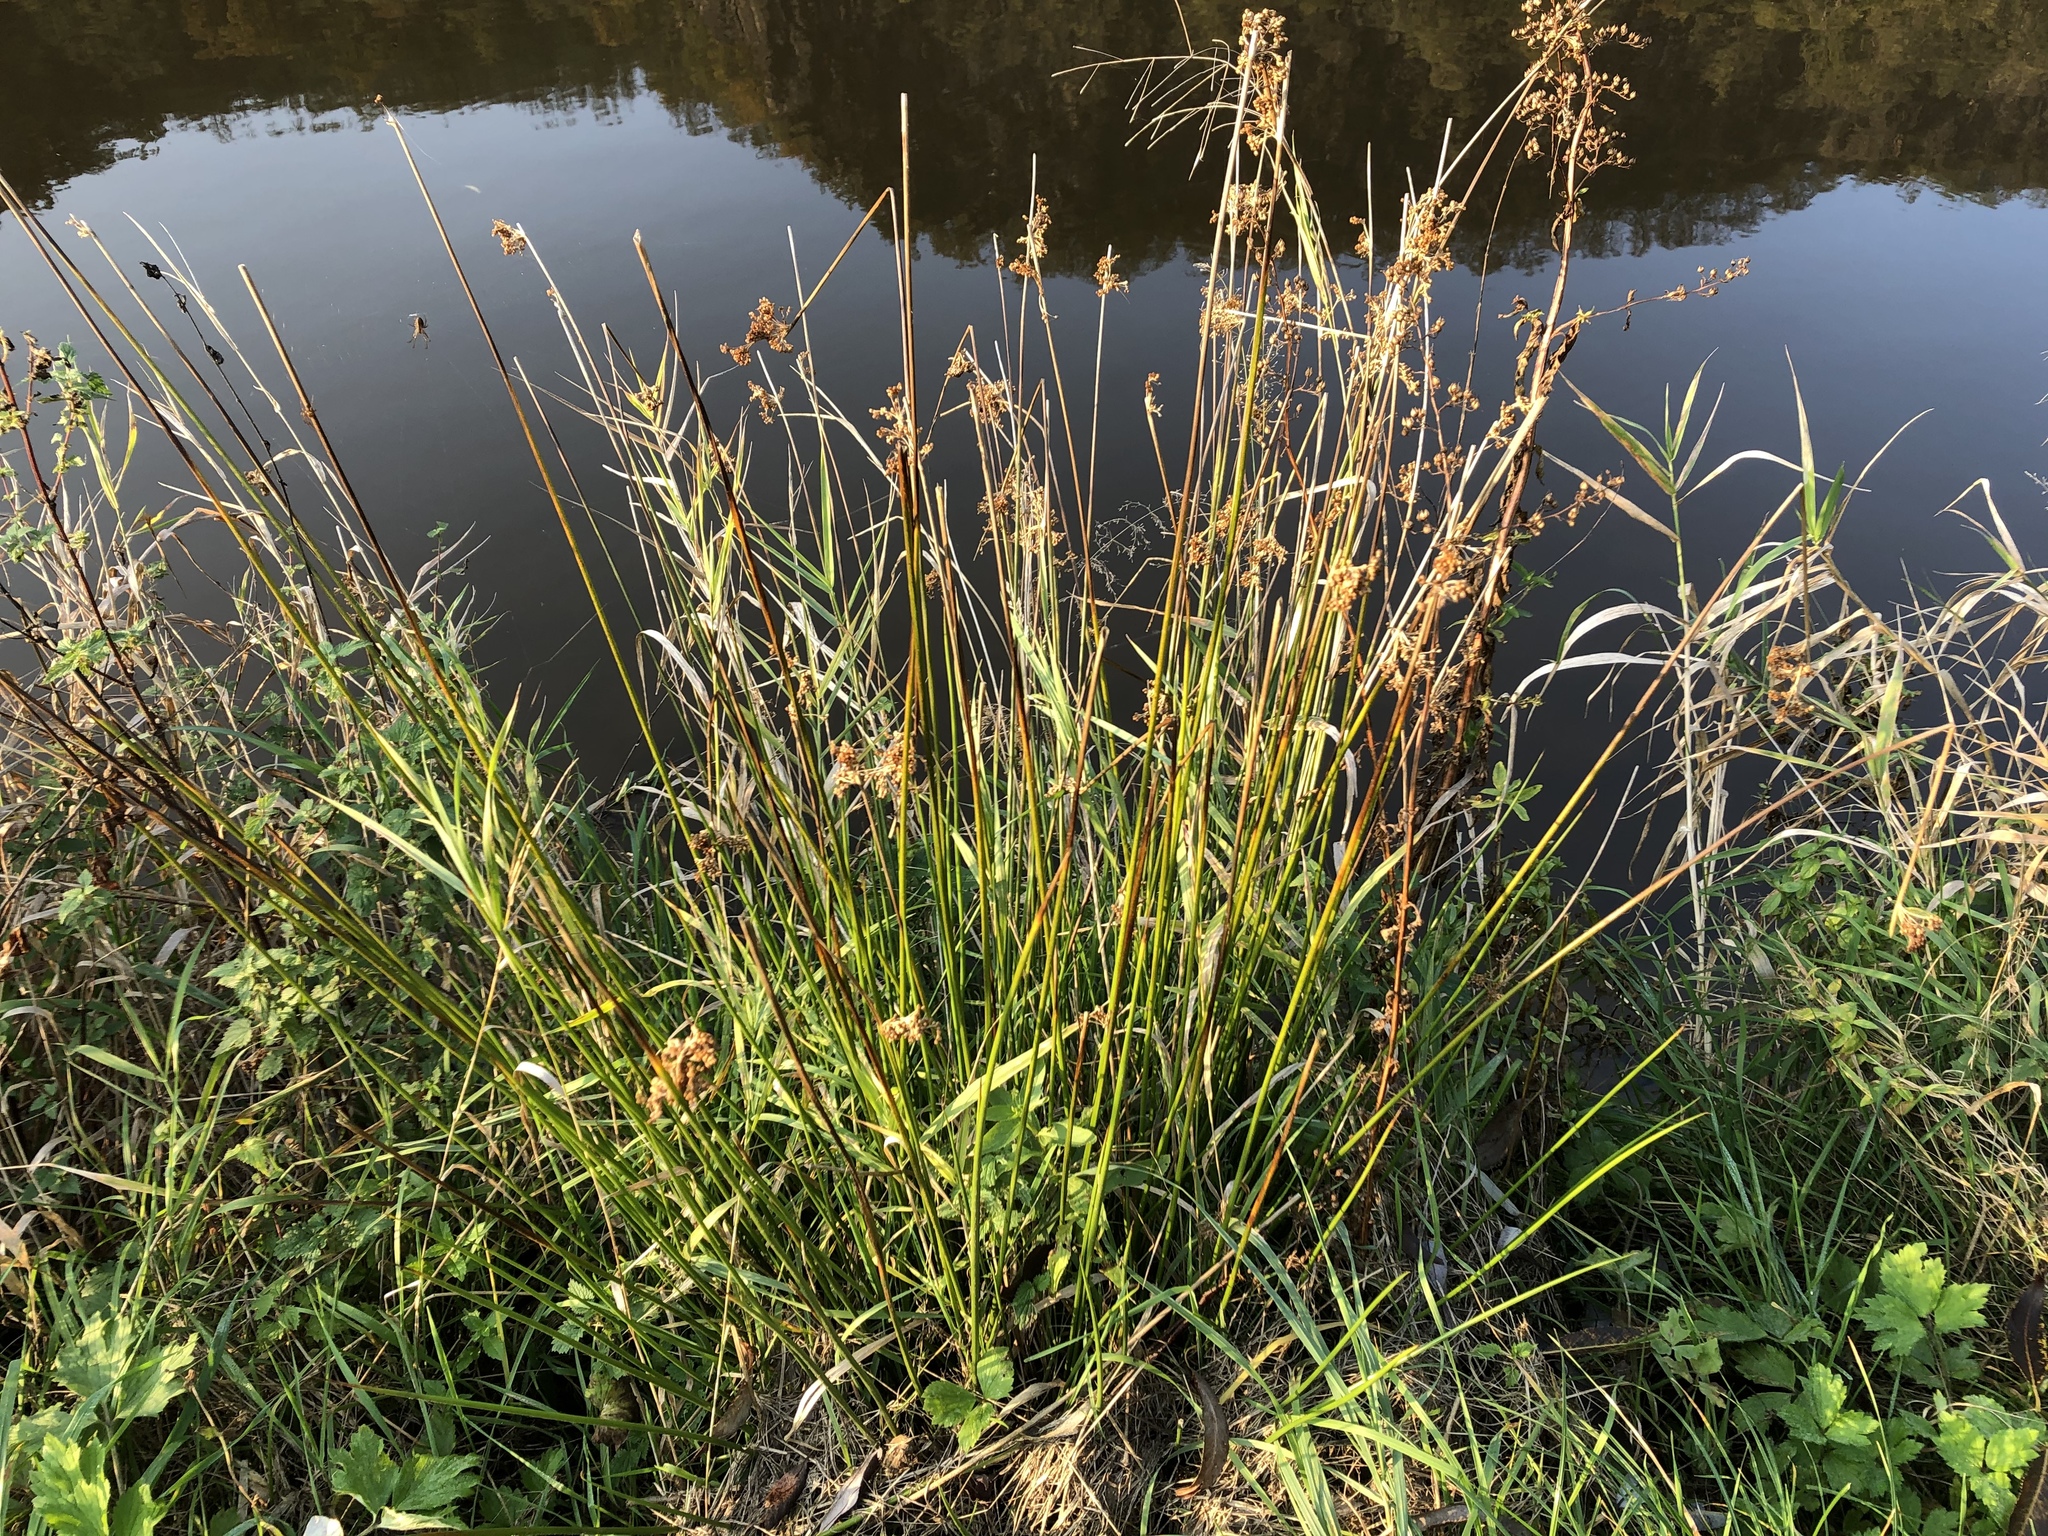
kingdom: Plantae
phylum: Tracheophyta
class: Liliopsida
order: Poales
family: Juncaceae
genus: Juncus
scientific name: Juncus effusus
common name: Soft rush
